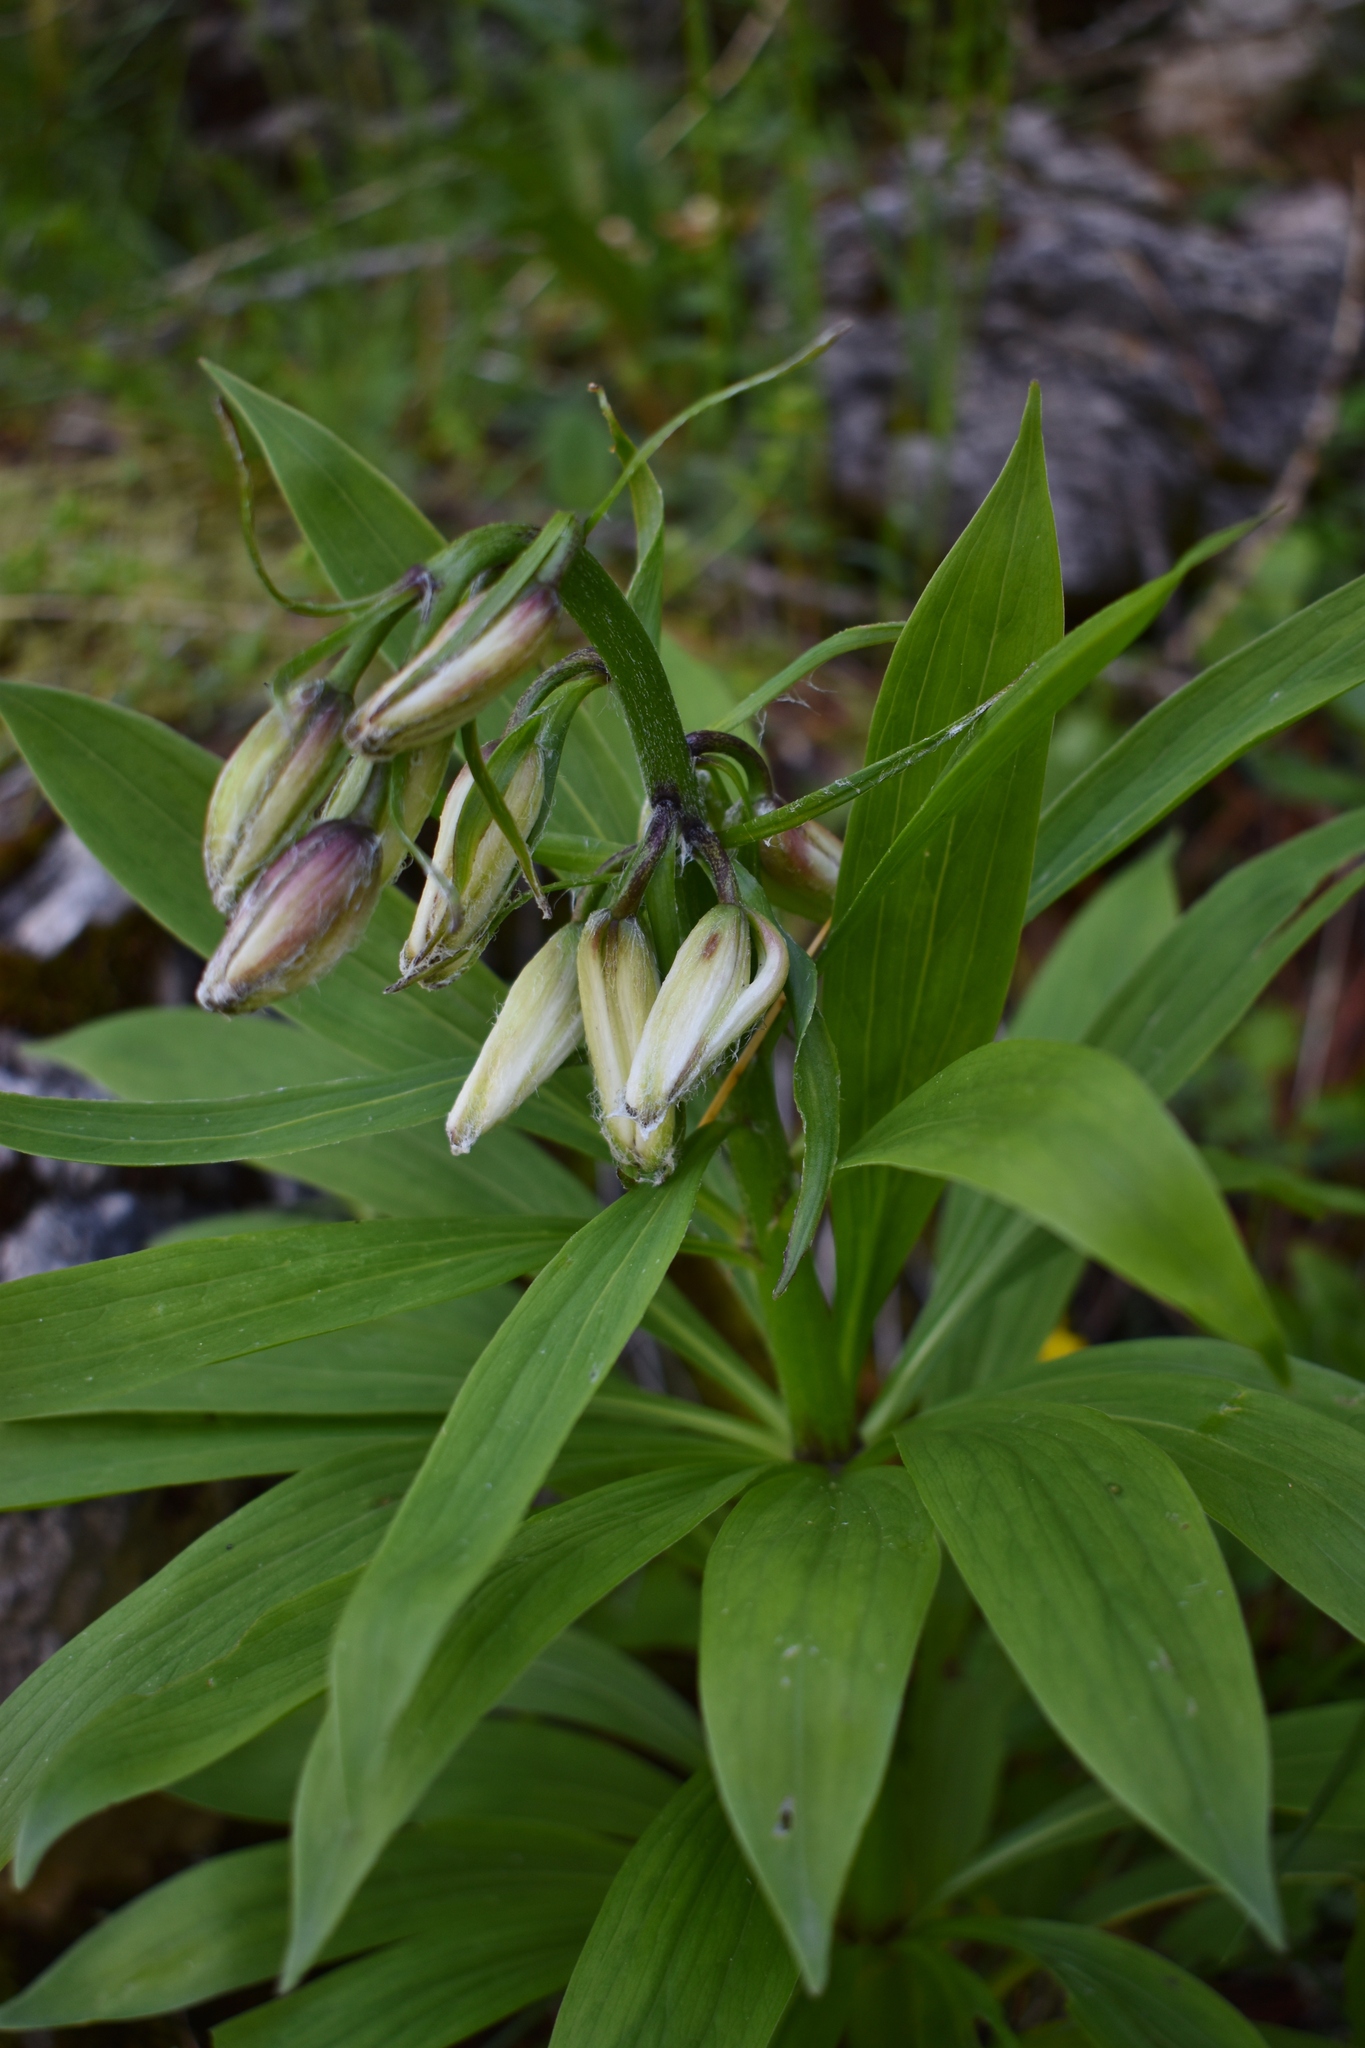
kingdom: Plantae
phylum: Tracheophyta
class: Liliopsida
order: Liliales
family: Liliaceae
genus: Lilium
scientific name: Lilium martagon
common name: Martagon lily
